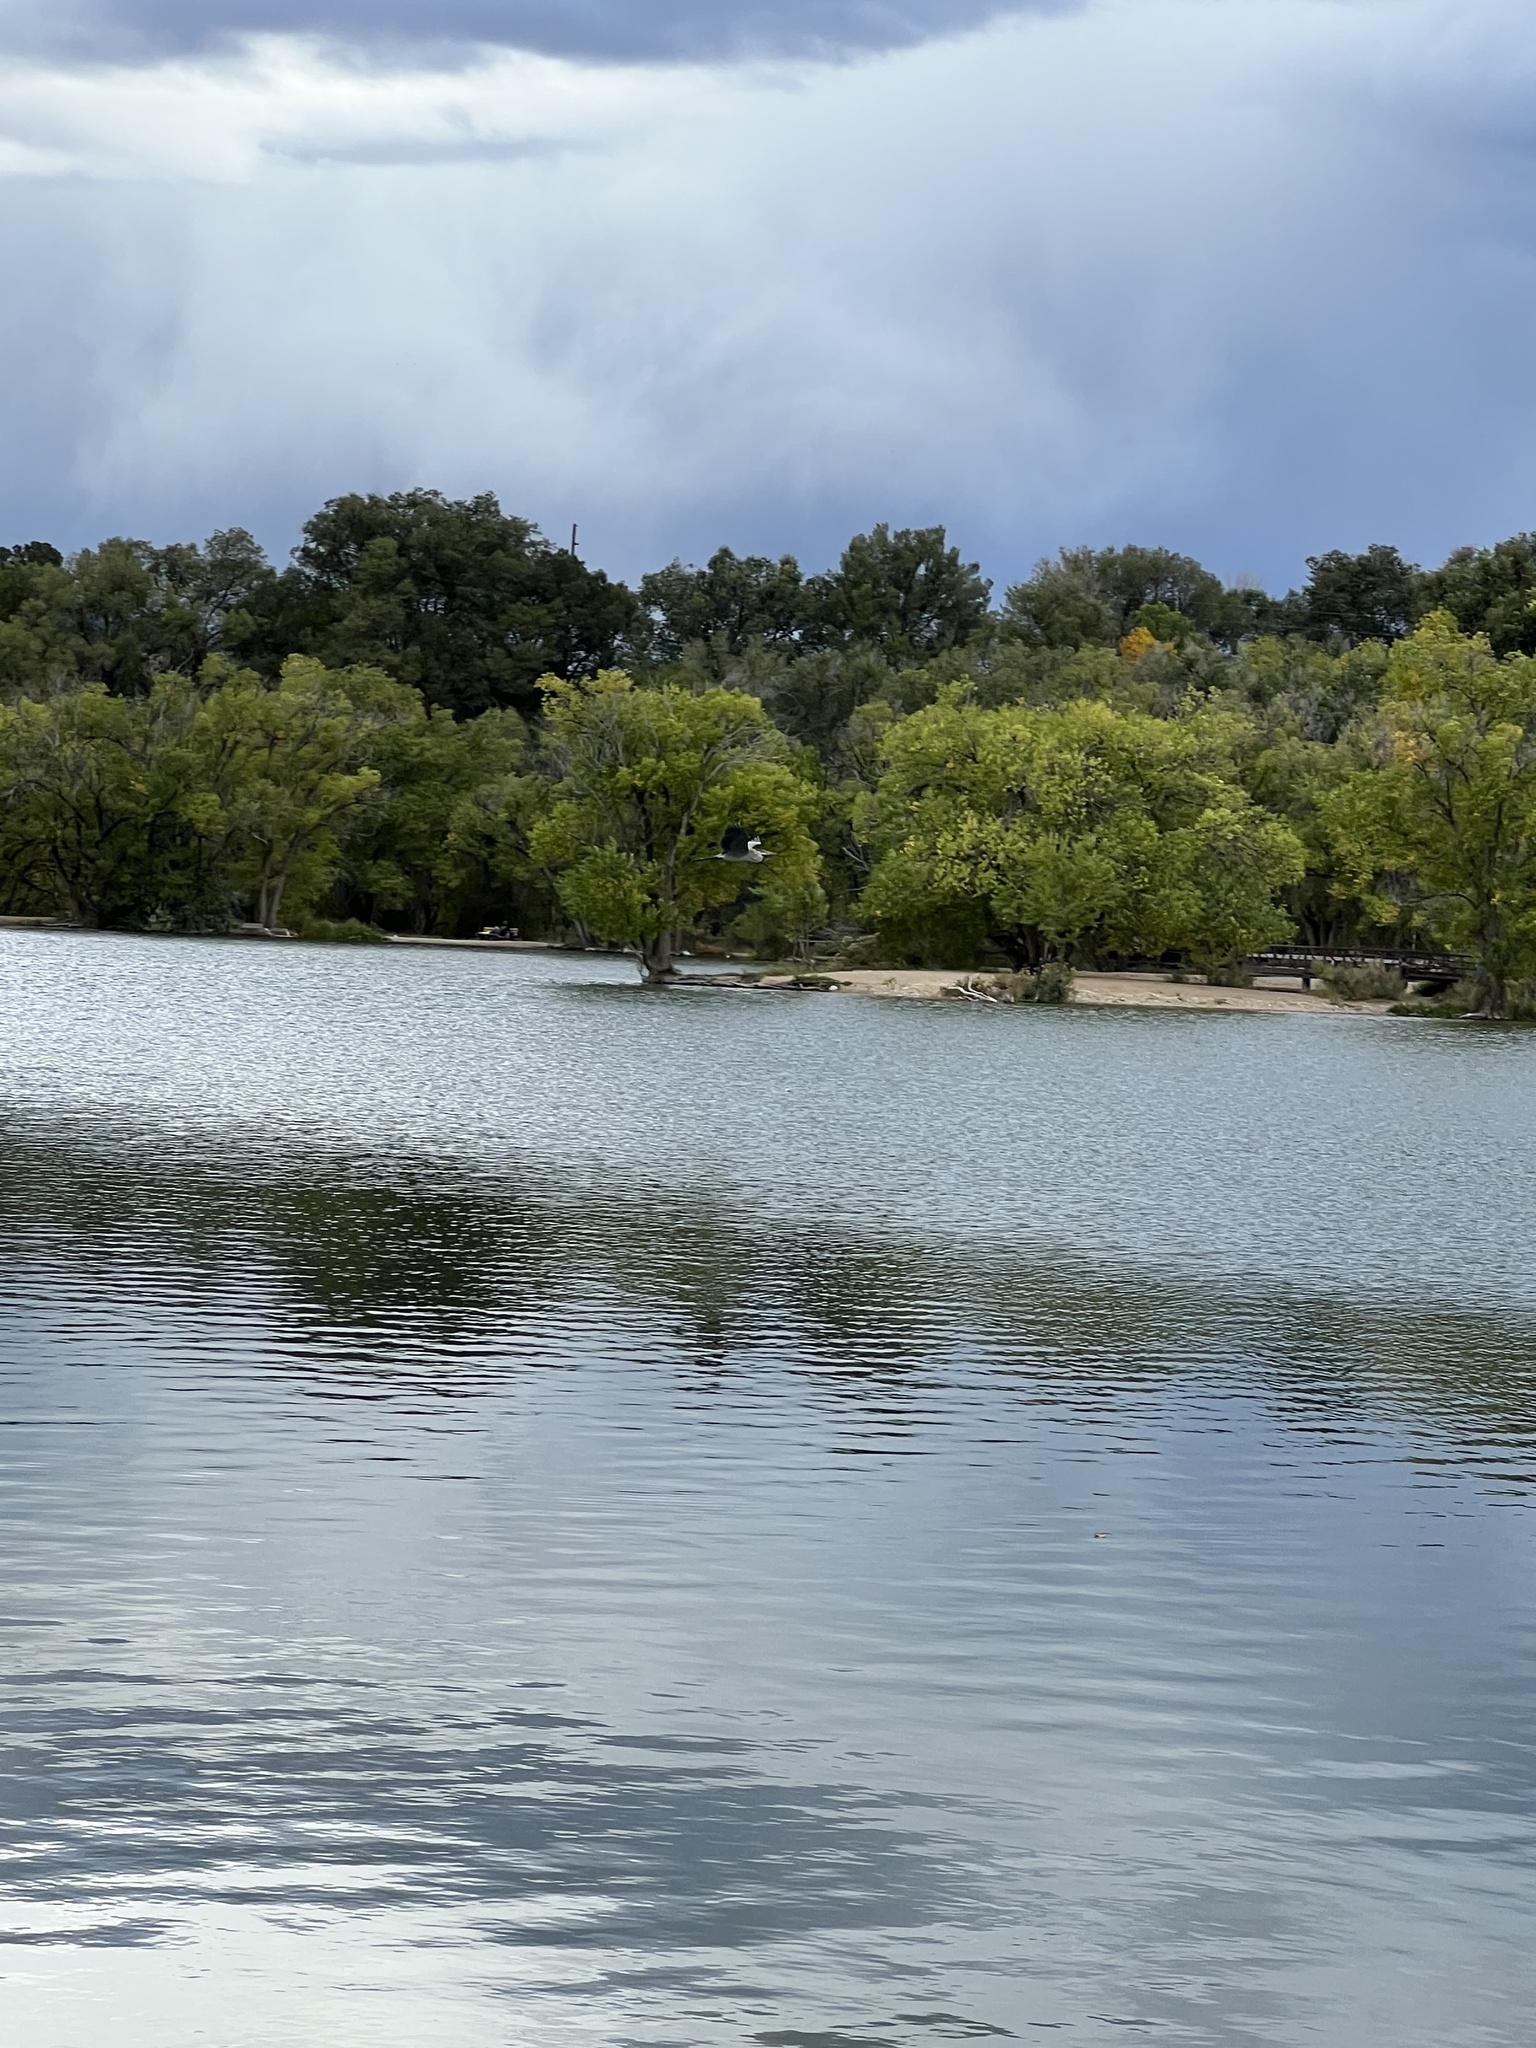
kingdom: Animalia
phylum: Chordata
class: Aves
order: Pelecaniformes
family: Ardeidae
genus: Ardea
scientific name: Ardea herodias
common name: Great blue heron
